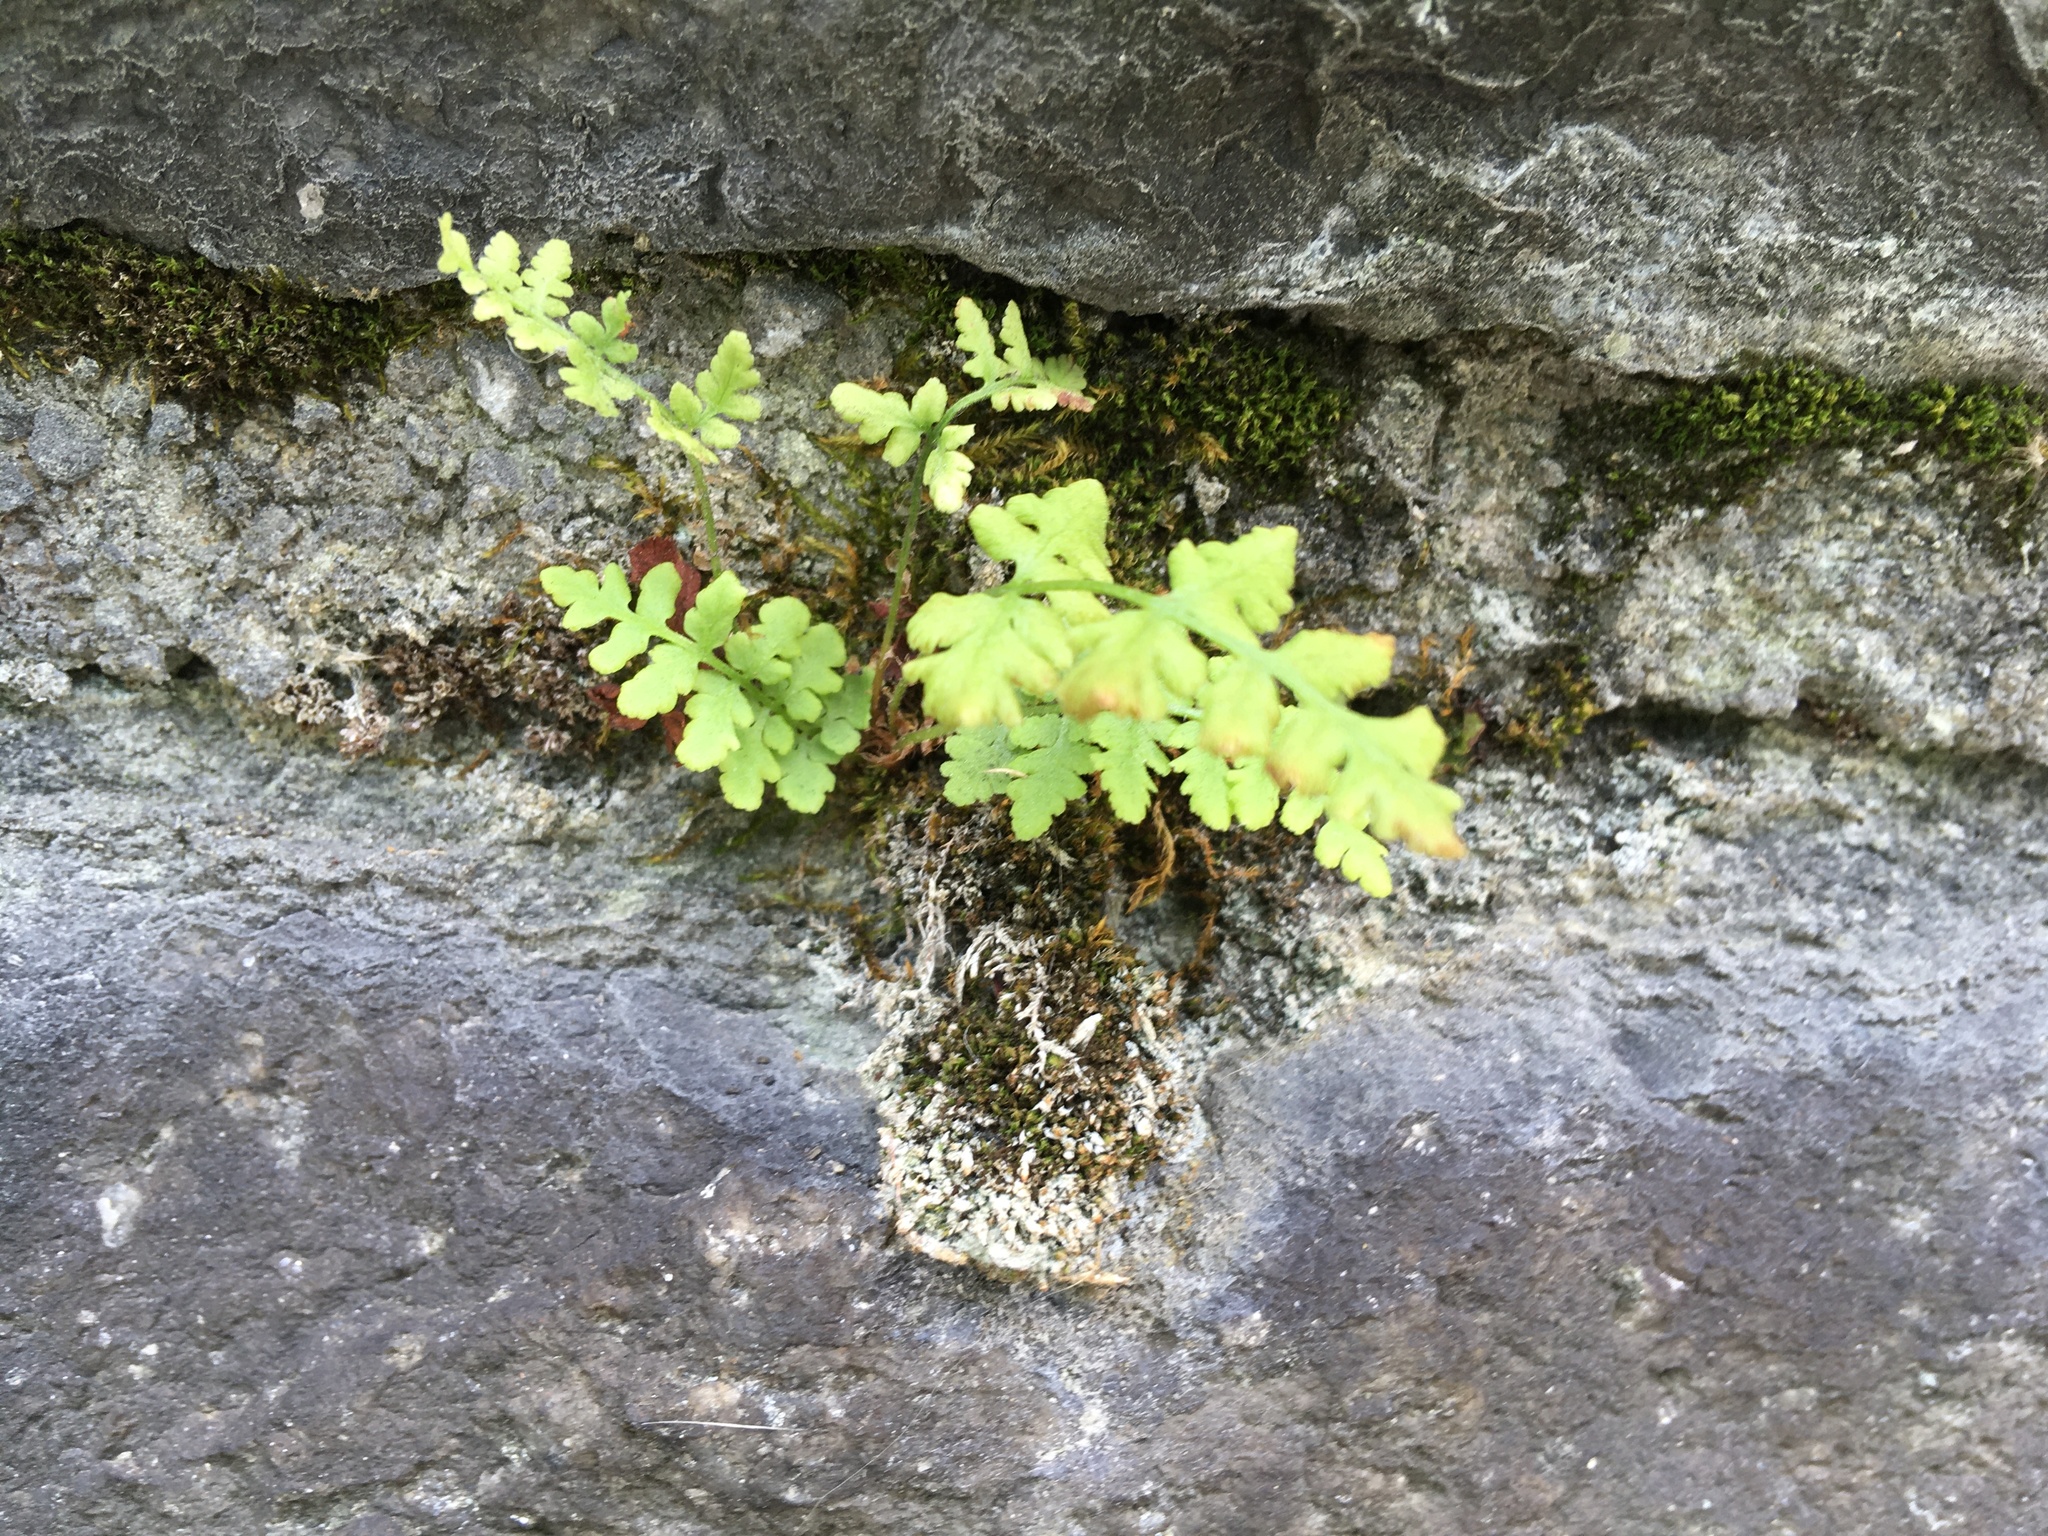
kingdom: Plantae
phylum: Tracheophyta
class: Polypodiopsida
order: Polypodiales
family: Woodsiaceae
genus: Physematium
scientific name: Physematium obtusum
